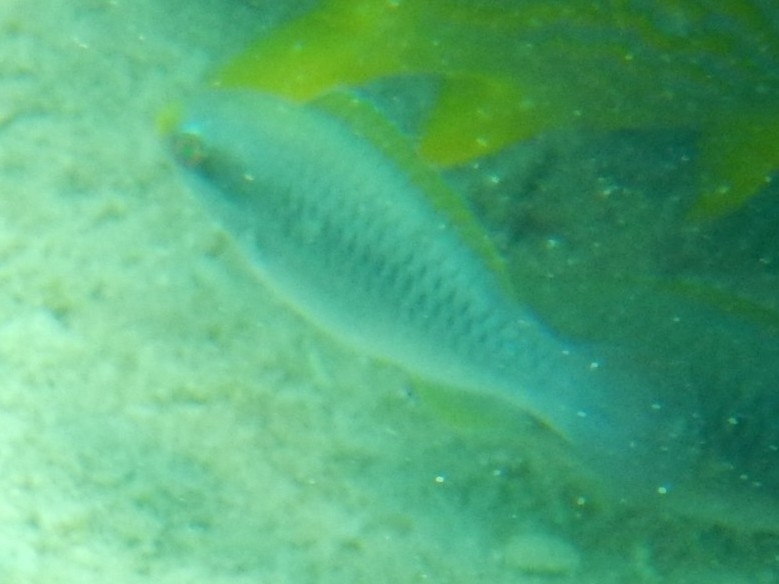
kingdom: Animalia
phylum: Chordata
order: Perciformes
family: Scaridae
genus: Scarus
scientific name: Scarus iseri
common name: Striped parrotfish
